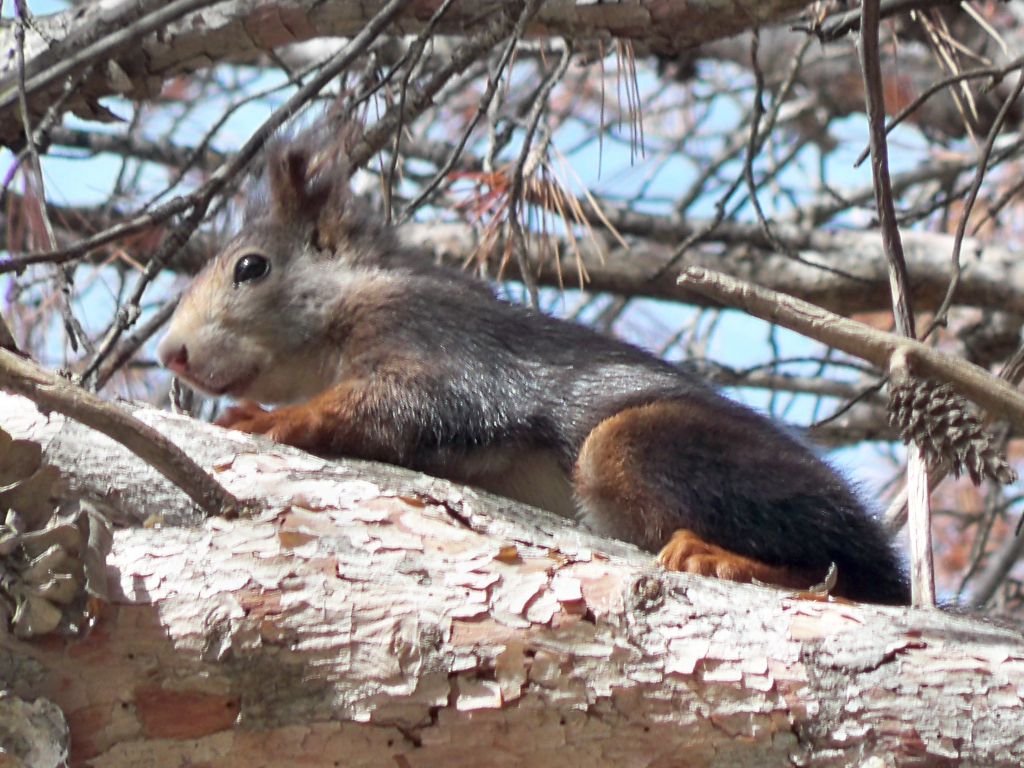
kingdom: Animalia
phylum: Chordata
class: Mammalia
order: Rodentia
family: Sciuridae
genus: Sciurus
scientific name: Sciurus vulgaris
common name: Eurasian red squirrel
